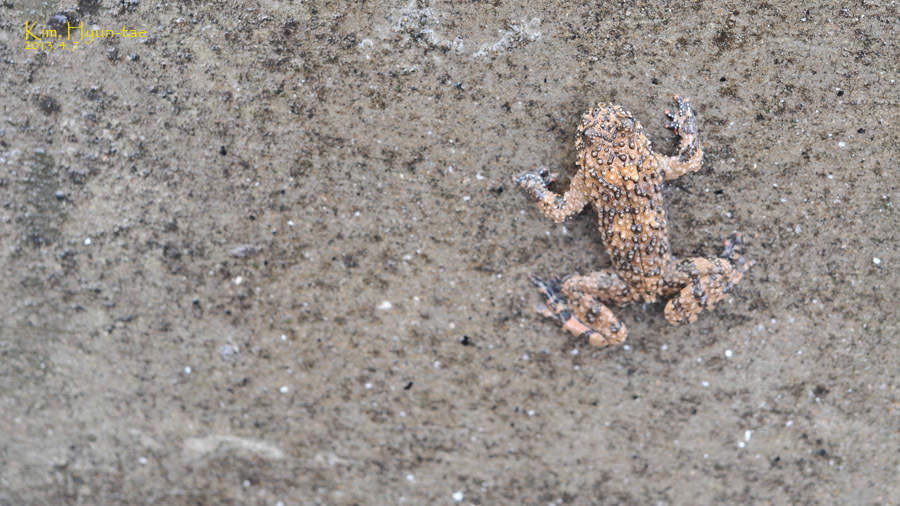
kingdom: Animalia
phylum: Chordata
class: Amphibia
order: Anura
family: Bombinatoridae
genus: Bombina
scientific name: Bombina orientalis
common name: Oriental firebelly toad
